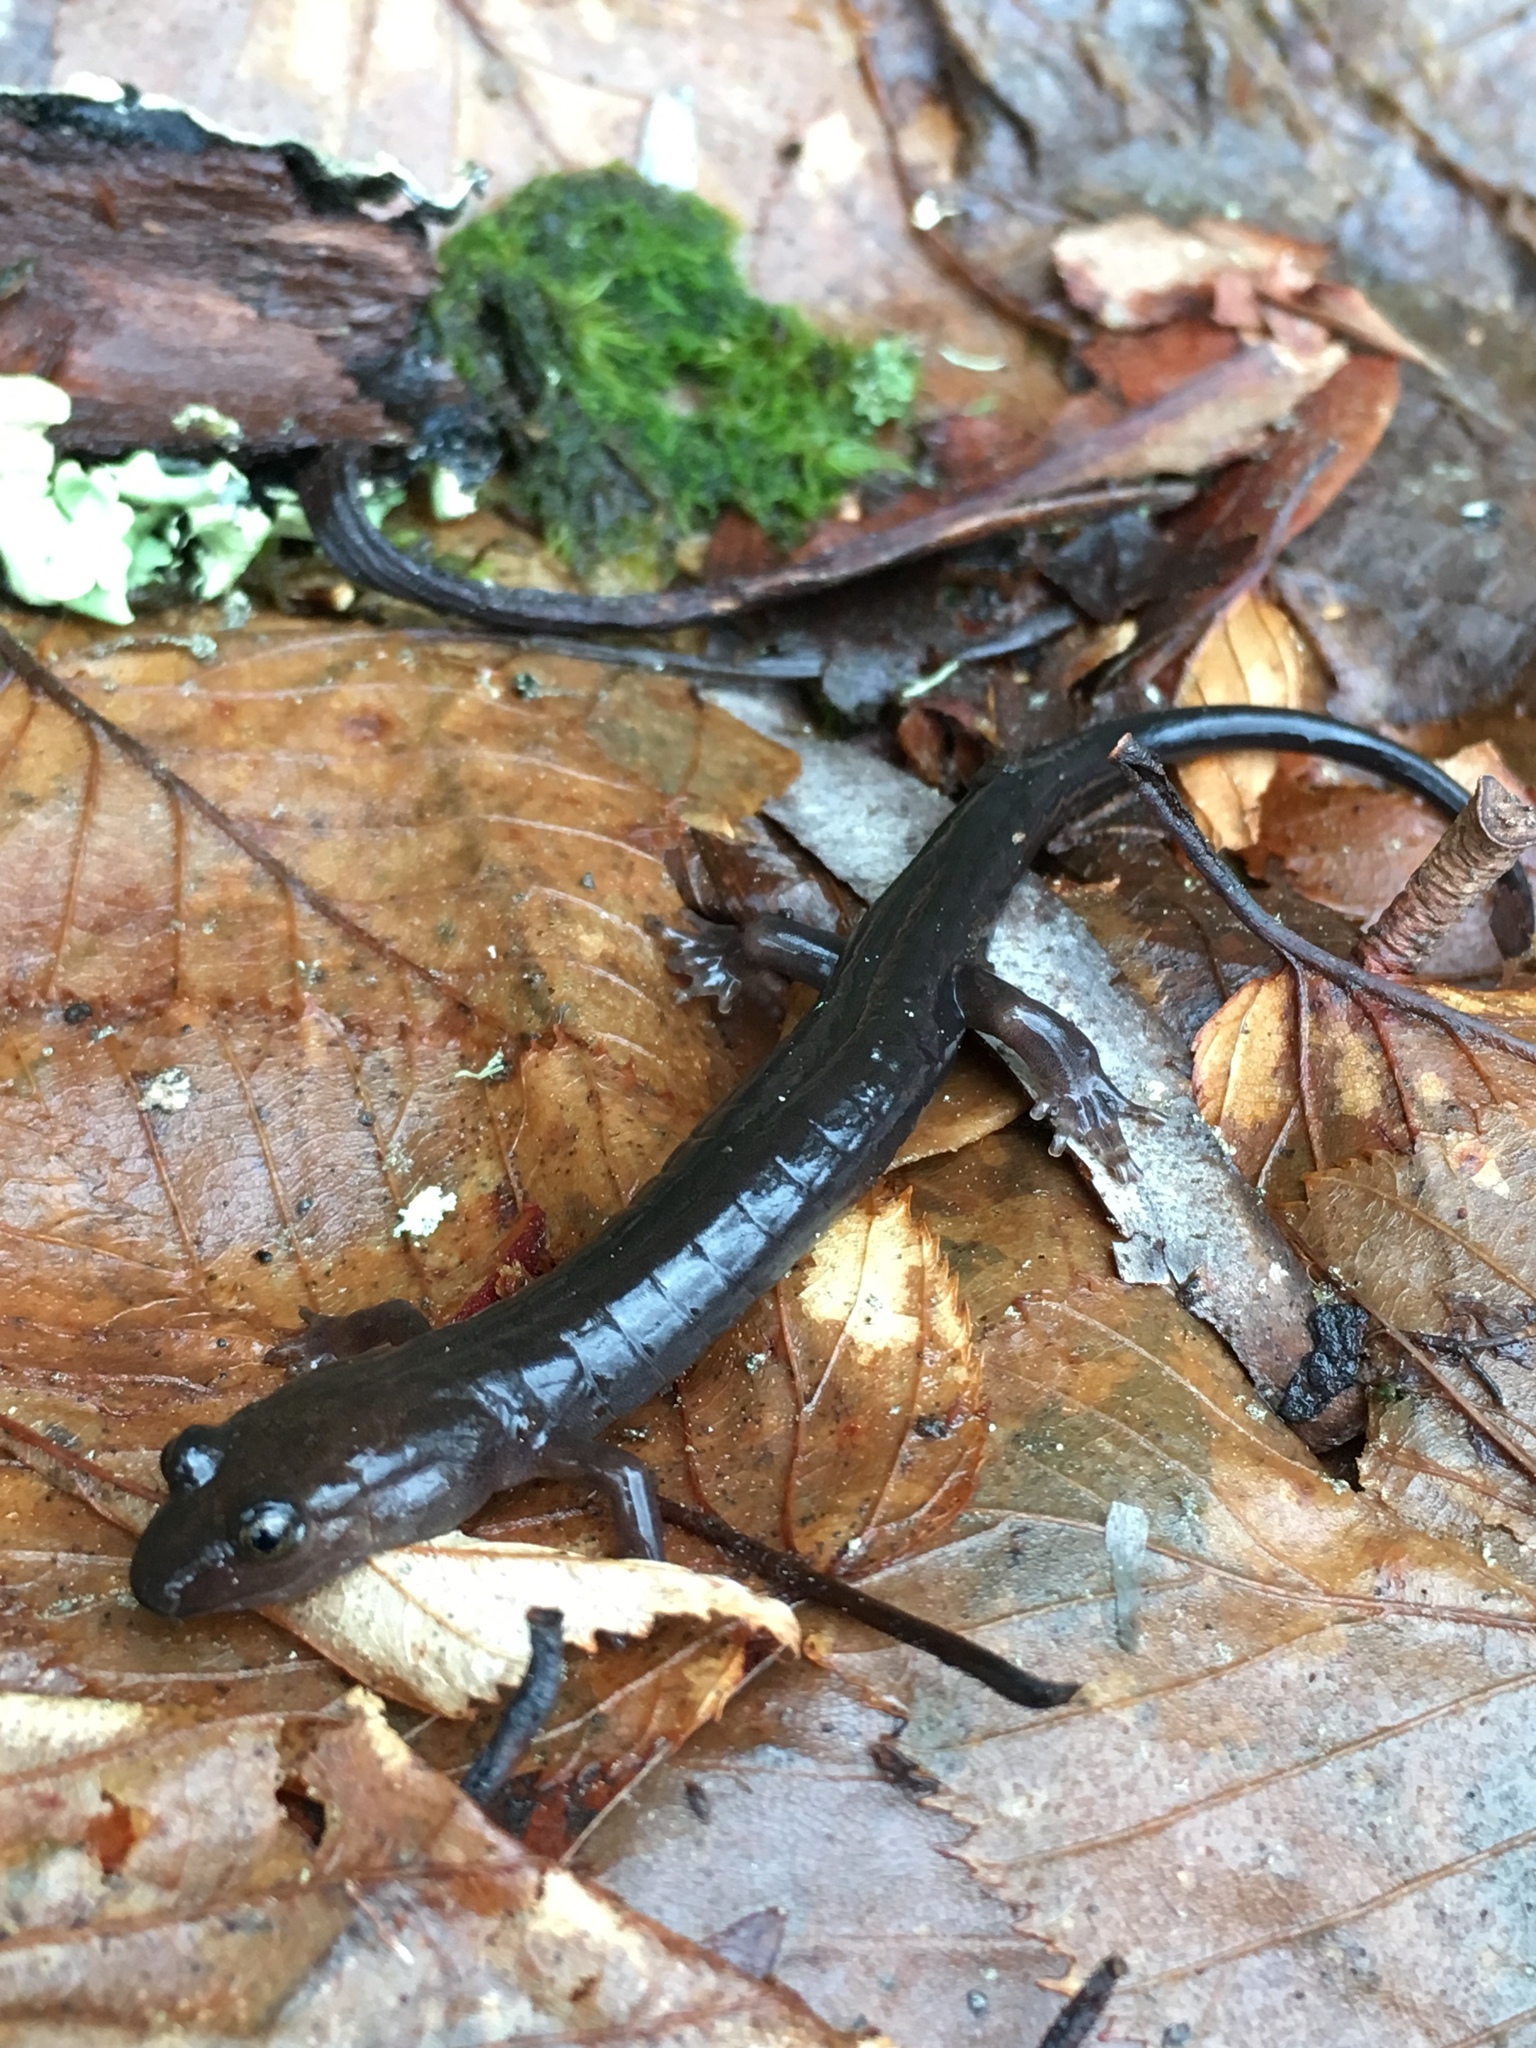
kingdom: Animalia
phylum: Chordata
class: Amphibia
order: Caudata
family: Plethodontidae
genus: Desmognathus
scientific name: Desmognathus imitator
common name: Imitator salamander
